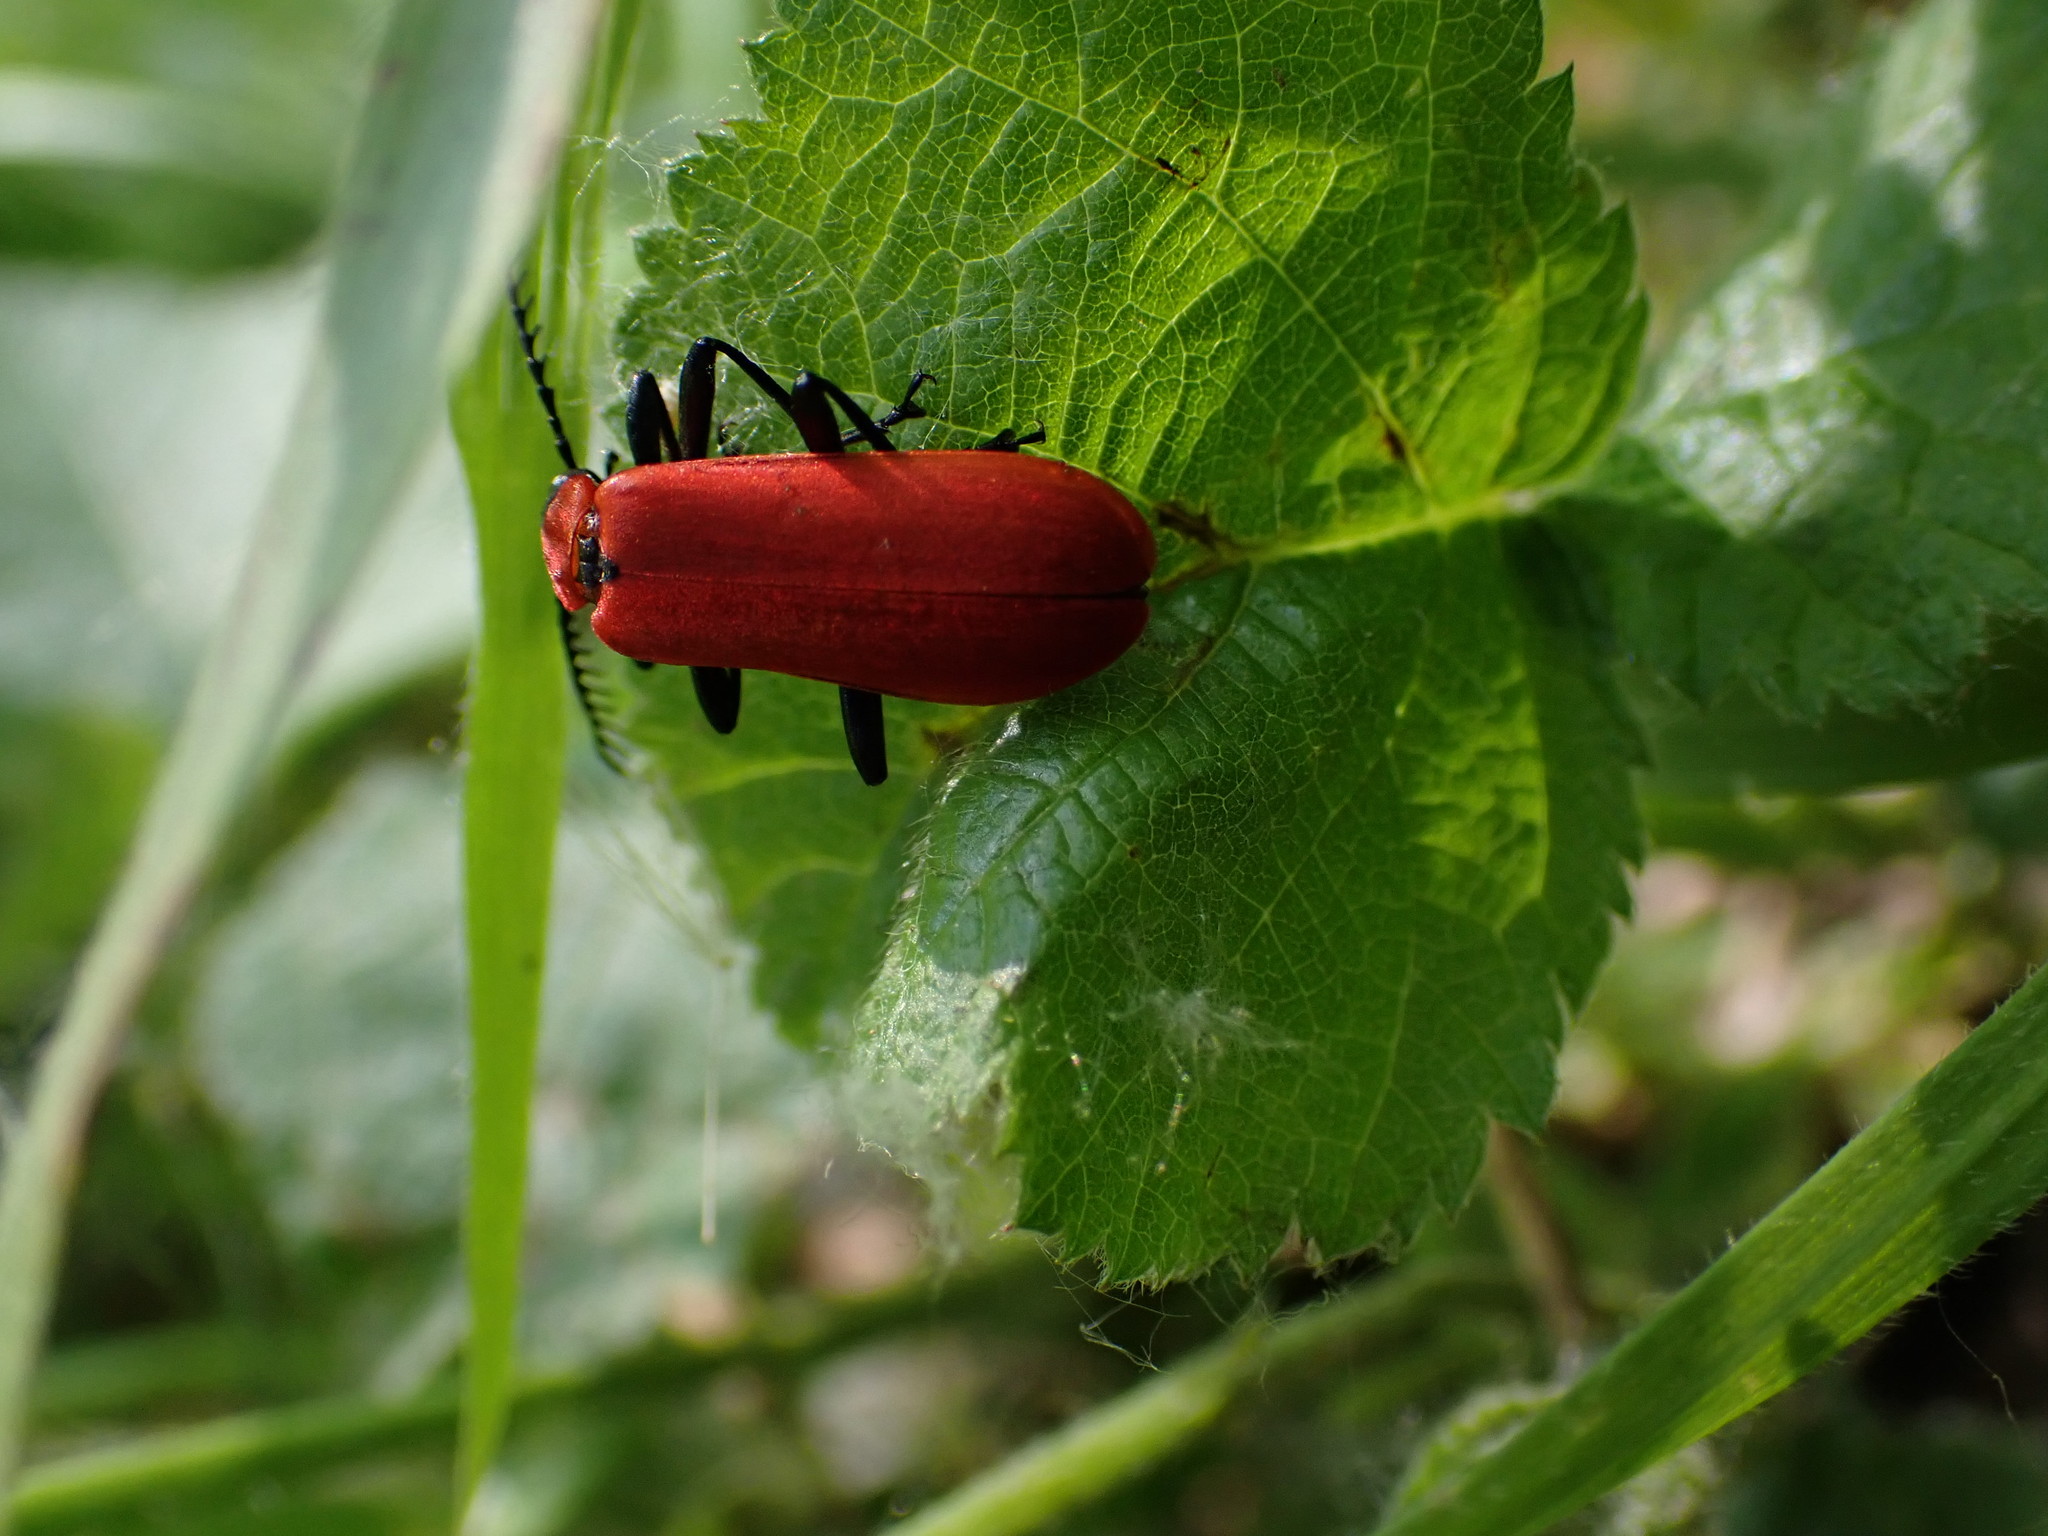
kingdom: Animalia
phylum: Arthropoda
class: Insecta
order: Coleoptera
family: Pyrochroidae
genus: Pyrochroa
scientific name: Pyrochroa coccinea
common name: Black-headed cardinal beetle
